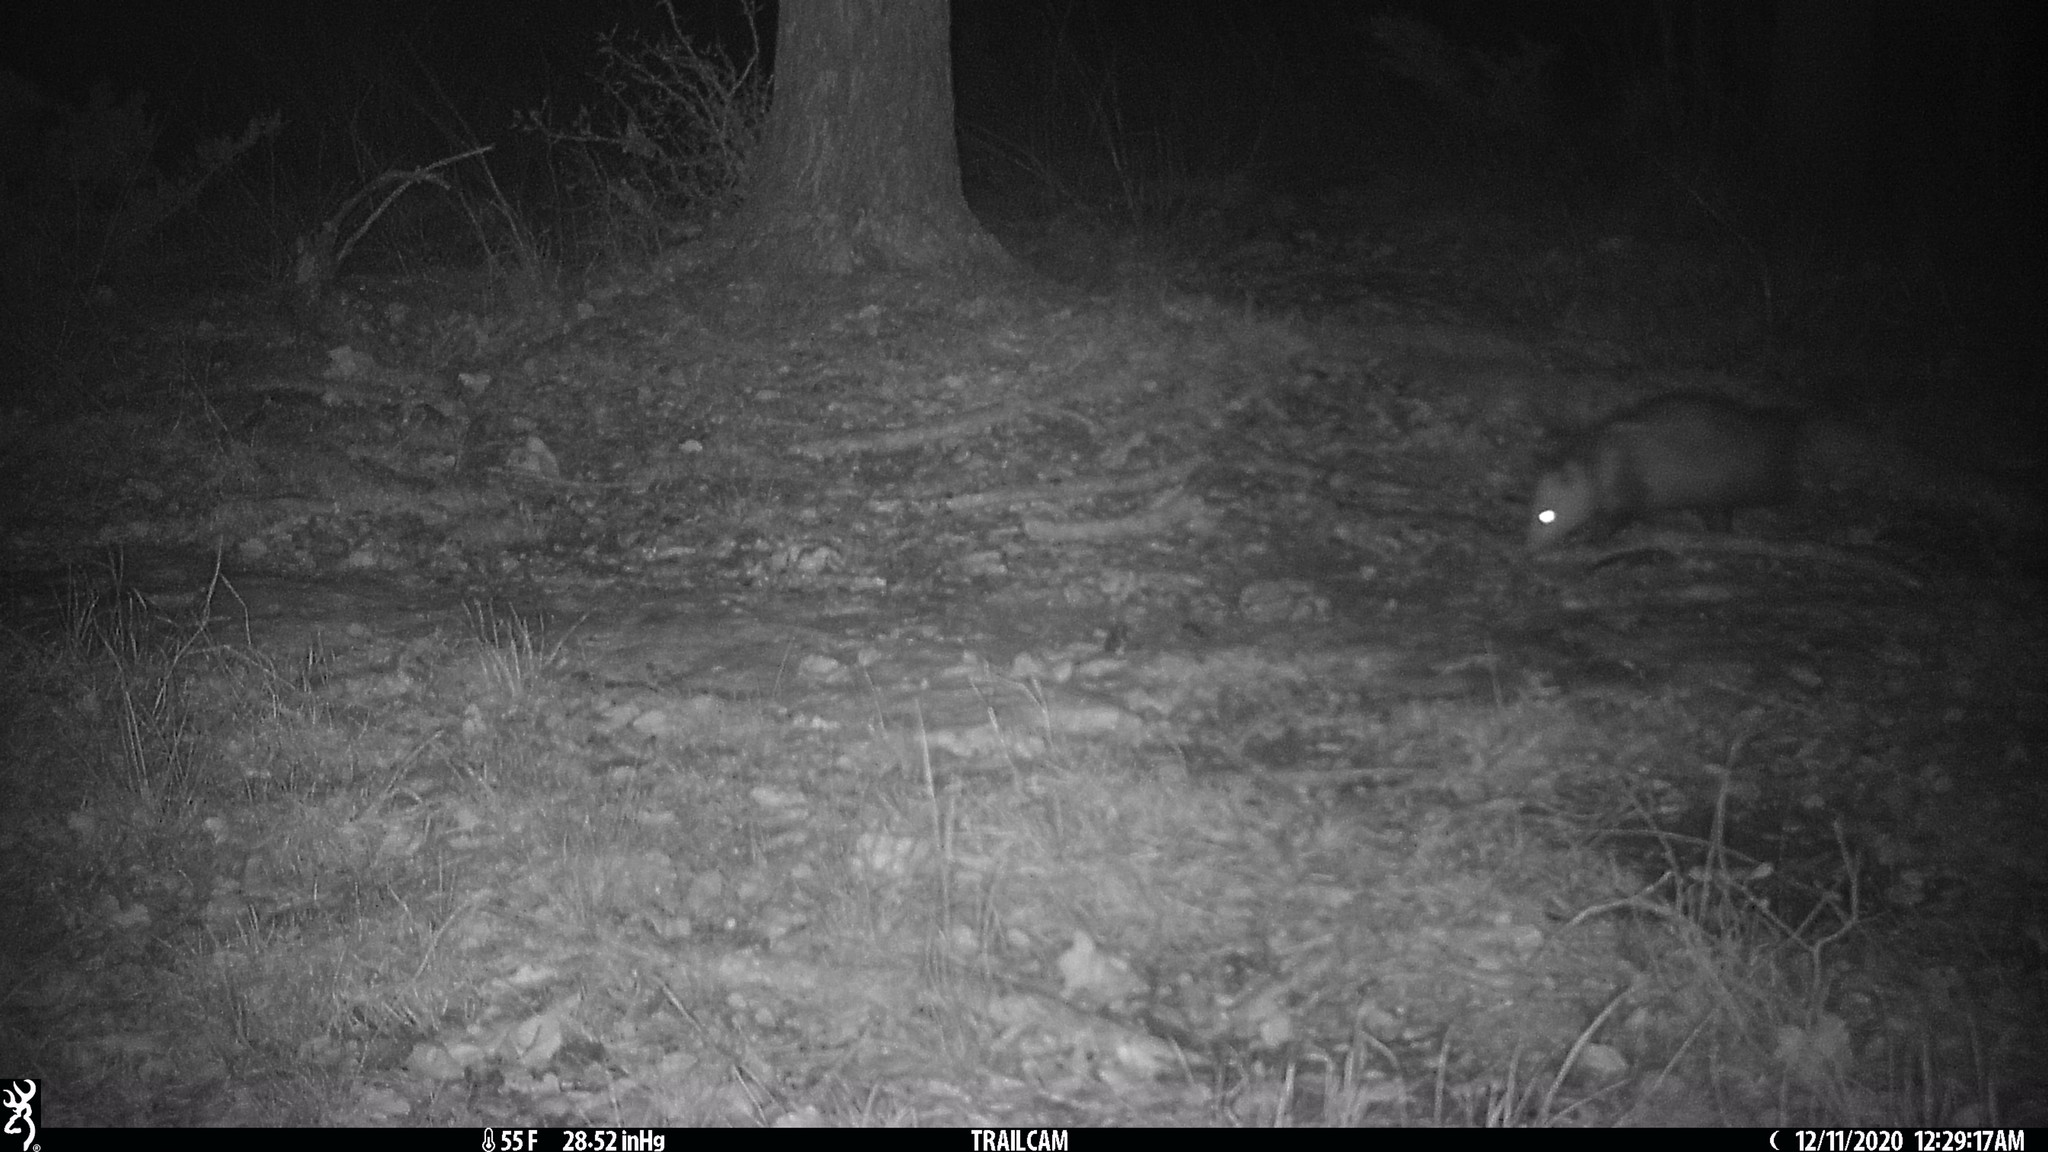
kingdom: Animalia
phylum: Chordata
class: Mammalia
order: Didelphimorphia
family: Didelphidae
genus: Didelphis
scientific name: Didelphis virginiana
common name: Virginia opossum
